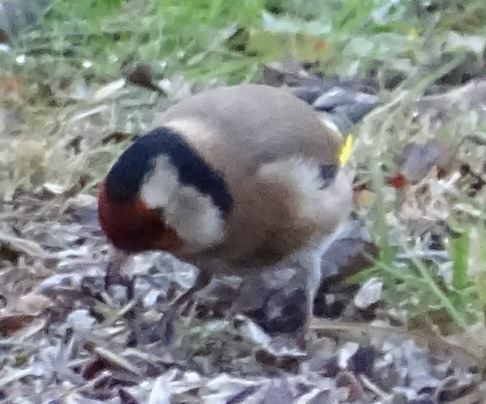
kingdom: Animalia
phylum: Chordata
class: Aves
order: Passeriformes
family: Fringillidae
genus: Carduelis
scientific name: Carduelis carduelis
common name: European goldfinch
